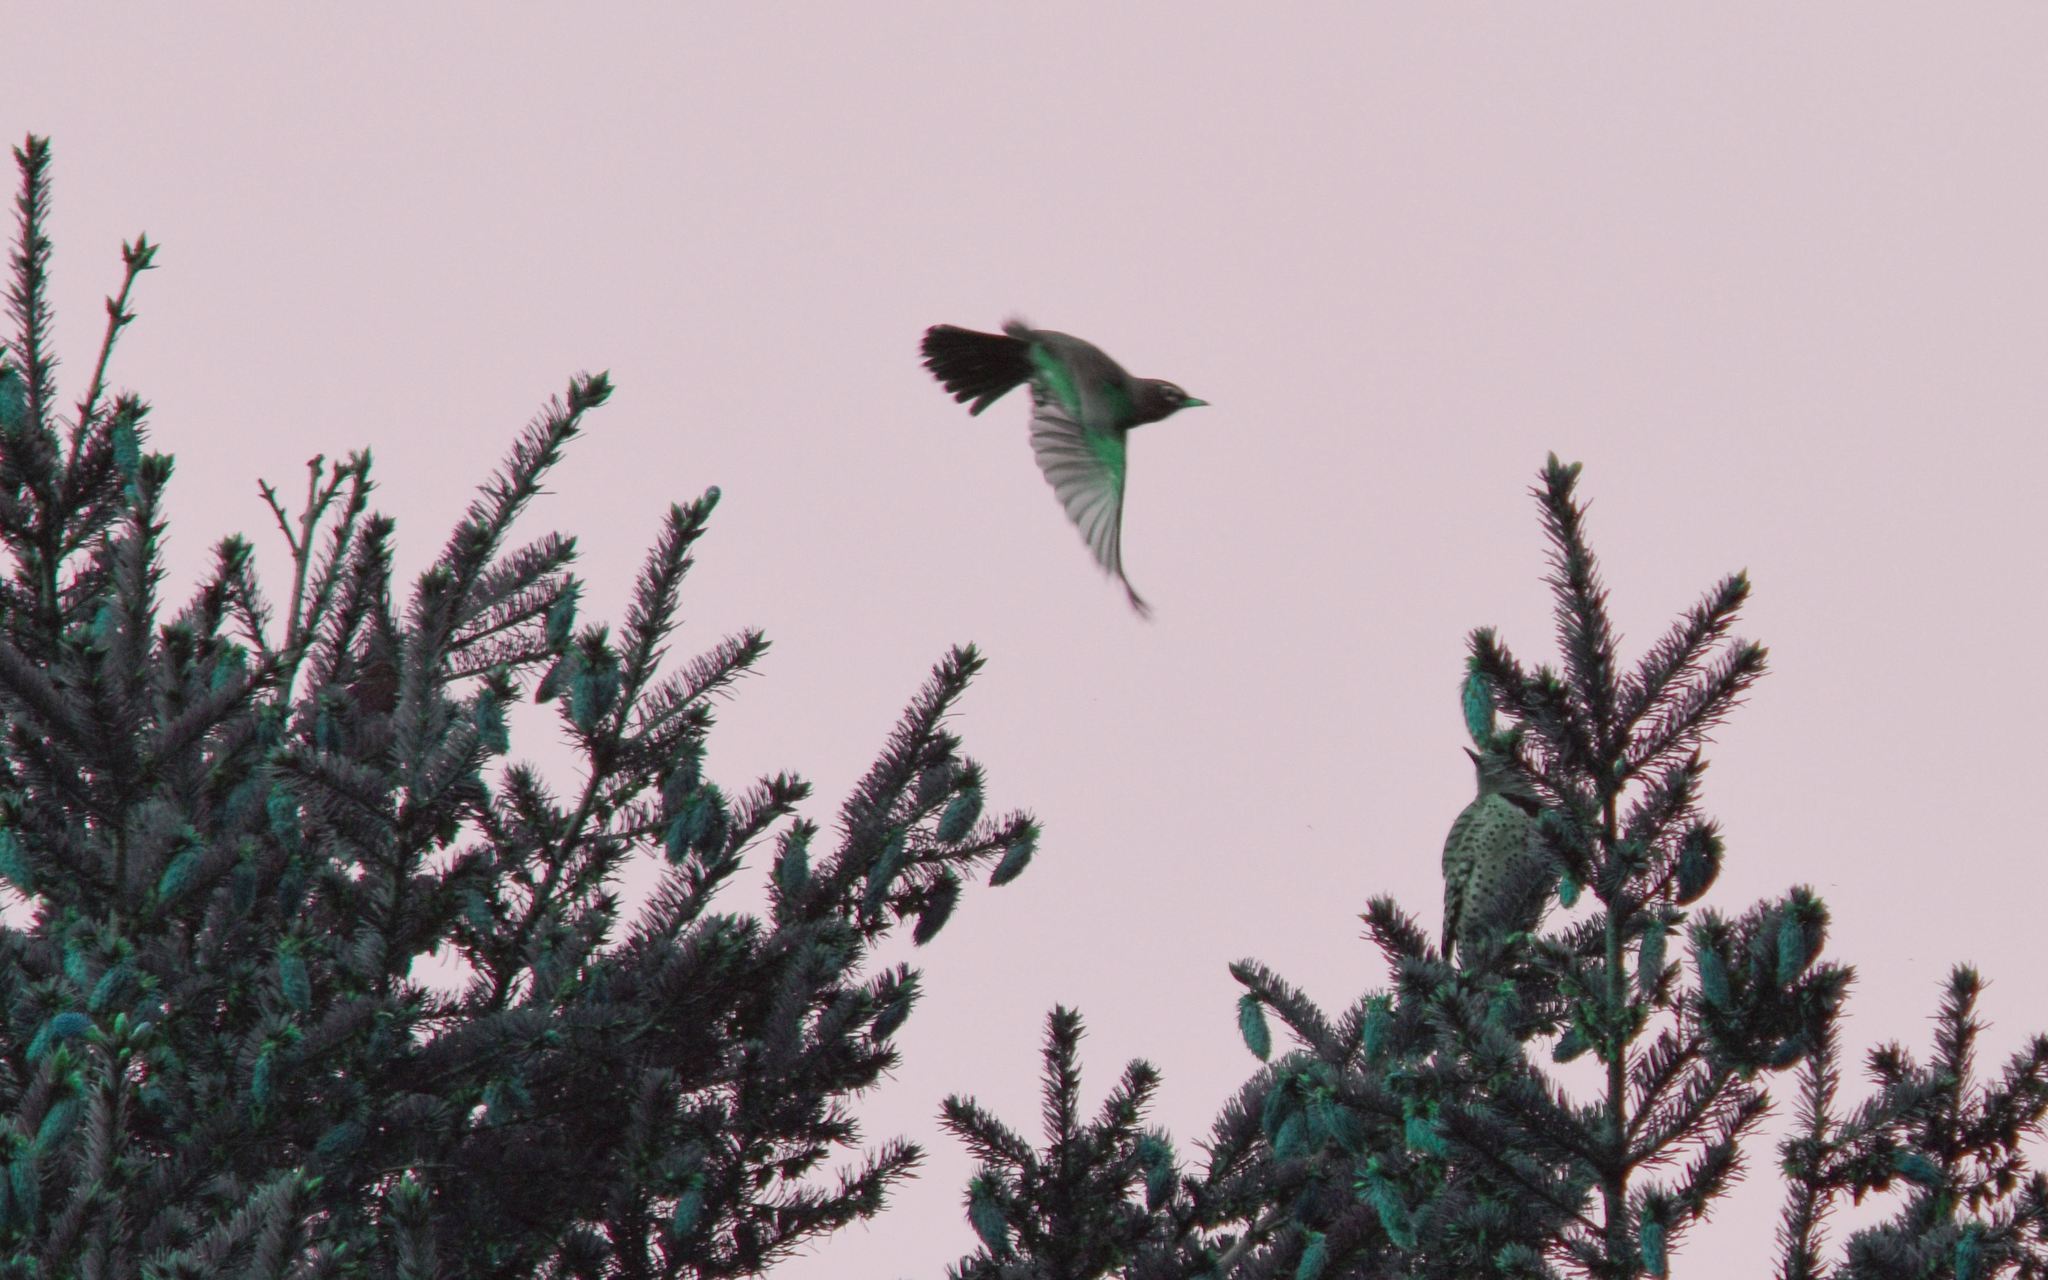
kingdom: Animalia
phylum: Chordata
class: Aves
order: Passeriformes
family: Turdidae
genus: Turdus
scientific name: Turdus migratorius
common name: American robin
